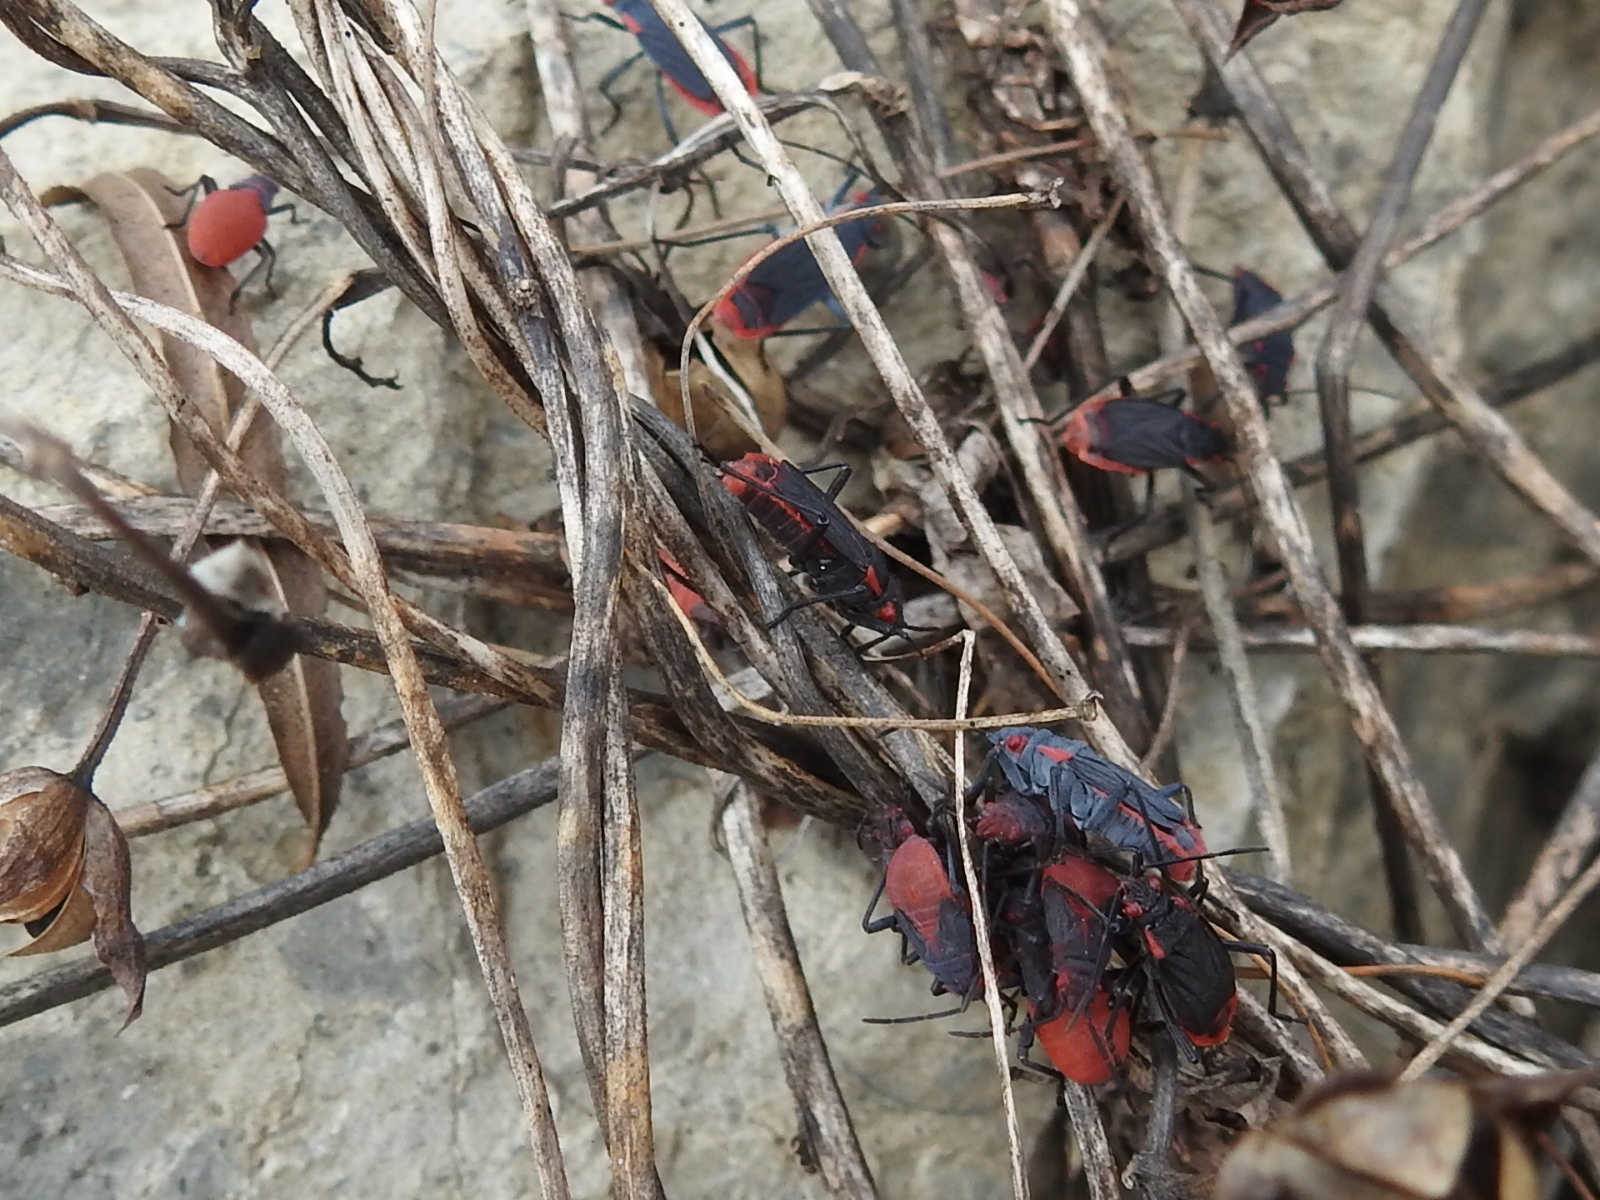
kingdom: Animalia
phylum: Arthropoda
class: Insecta
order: Hemiptera
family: Rhopalidae
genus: Jadera
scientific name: Jadera haematoloma
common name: Red-shouldered bug
